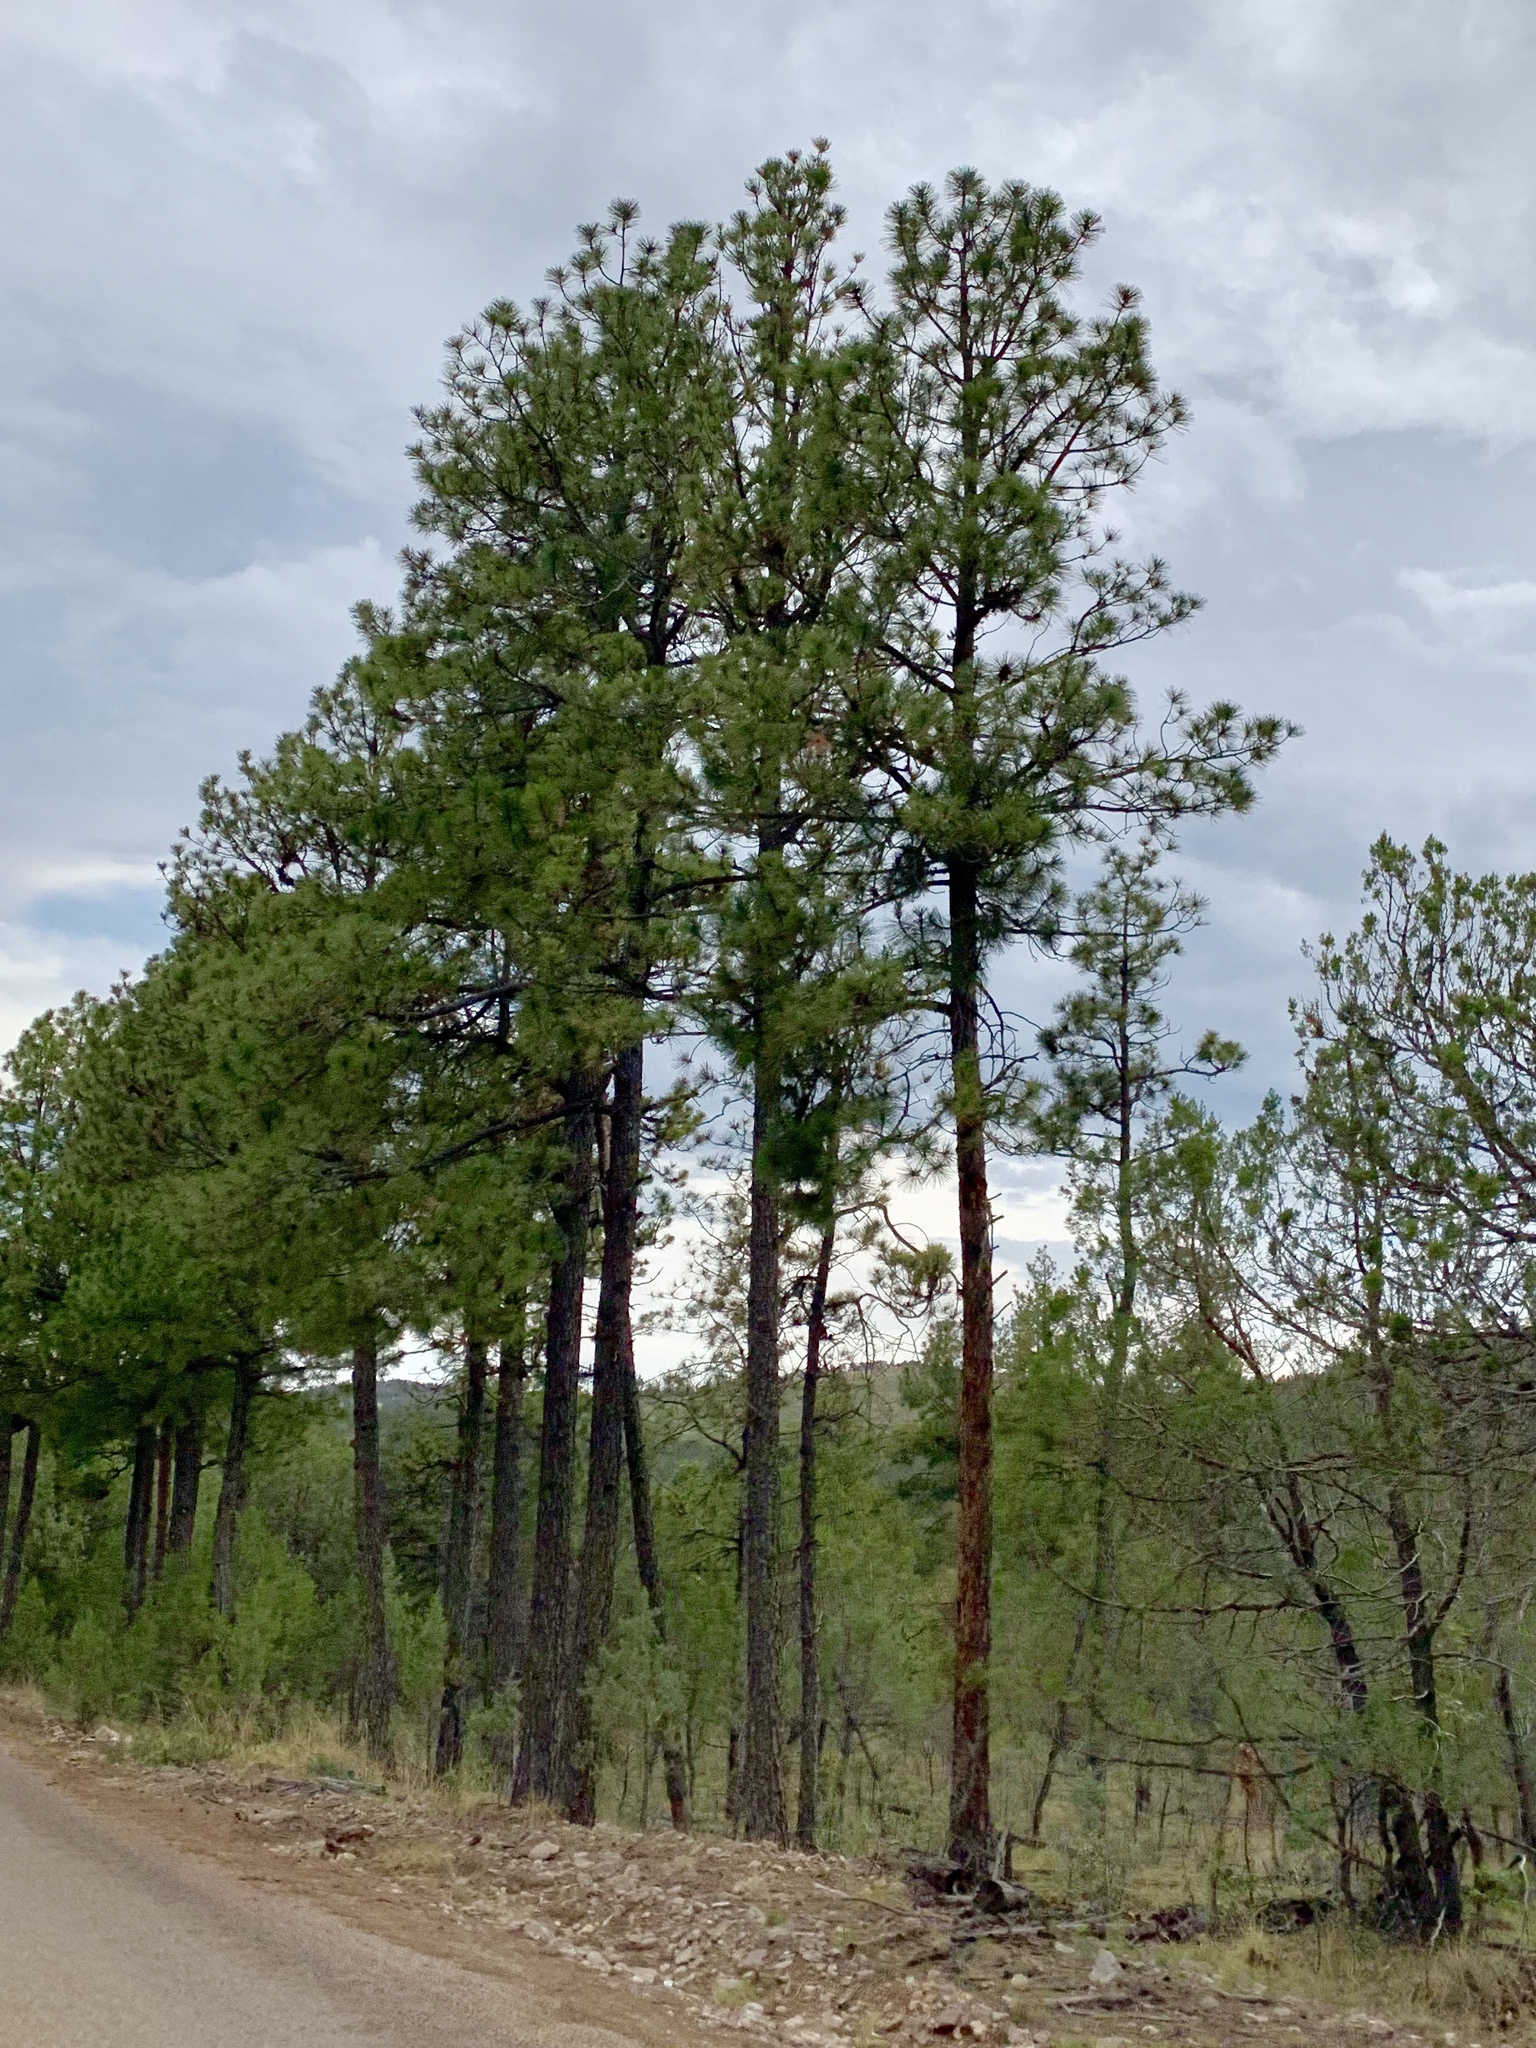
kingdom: Plantae
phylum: Tracheophyta
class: Pinopsida
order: Pinales
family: Pinaceae
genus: Pinus
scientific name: Pinus ponderosa
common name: Western yellow-pine
